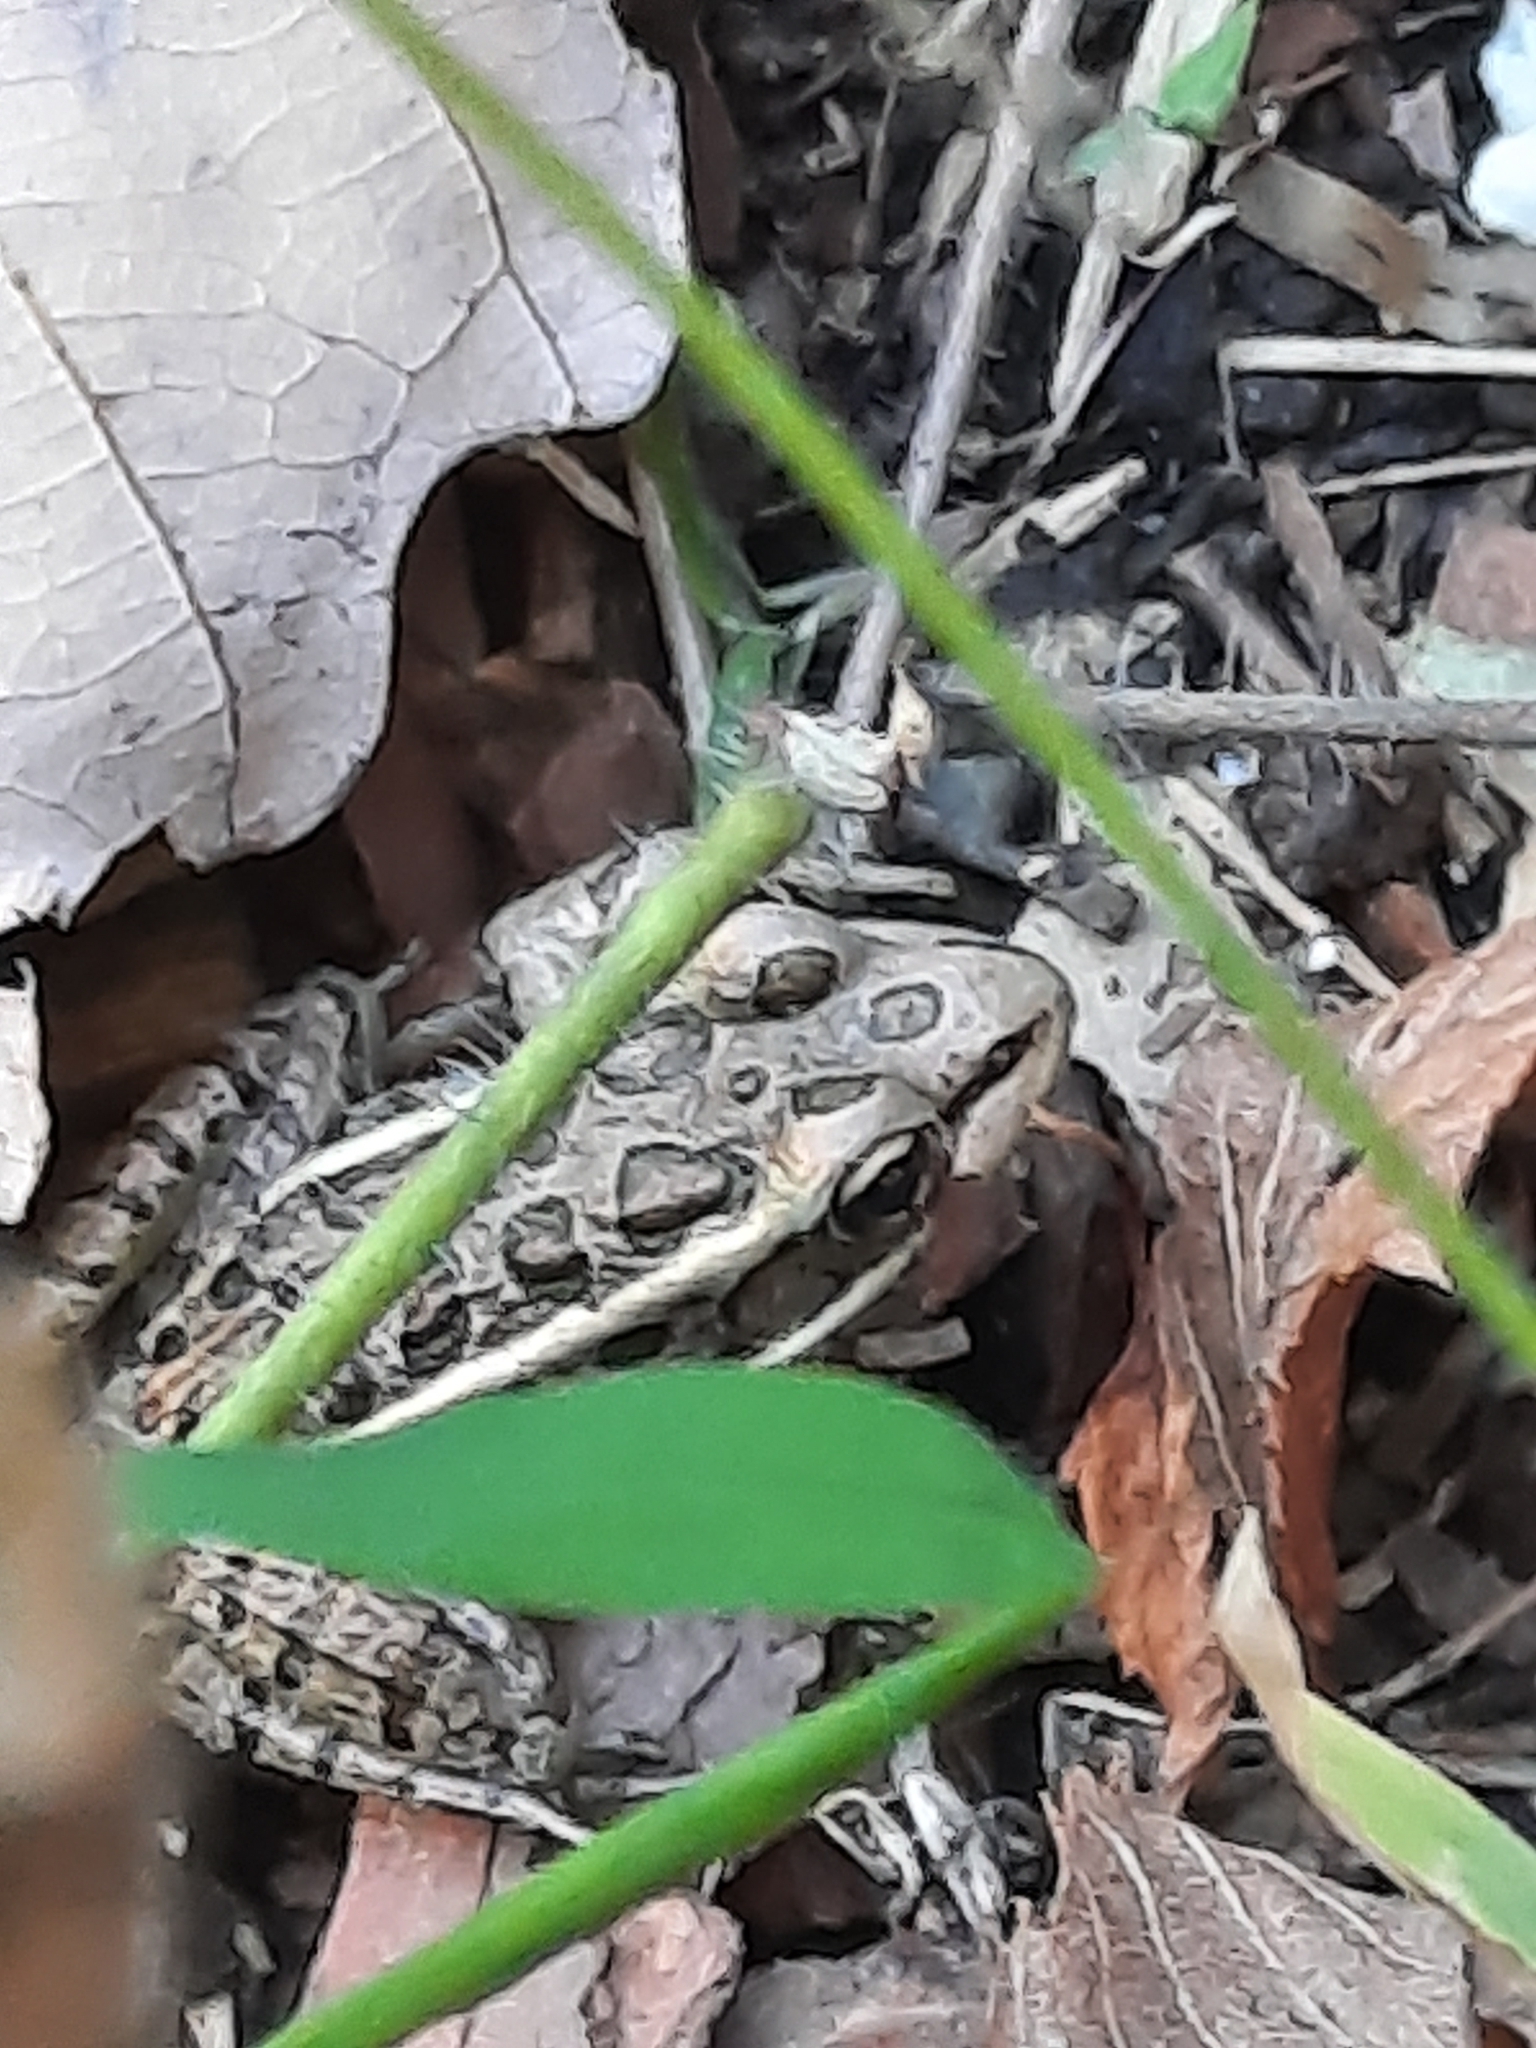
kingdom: Animalia
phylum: Chordata
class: Amphibia
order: Anura
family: Ranidae
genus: Lithobates
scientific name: Lithobates palustris
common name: Pickerel frog
